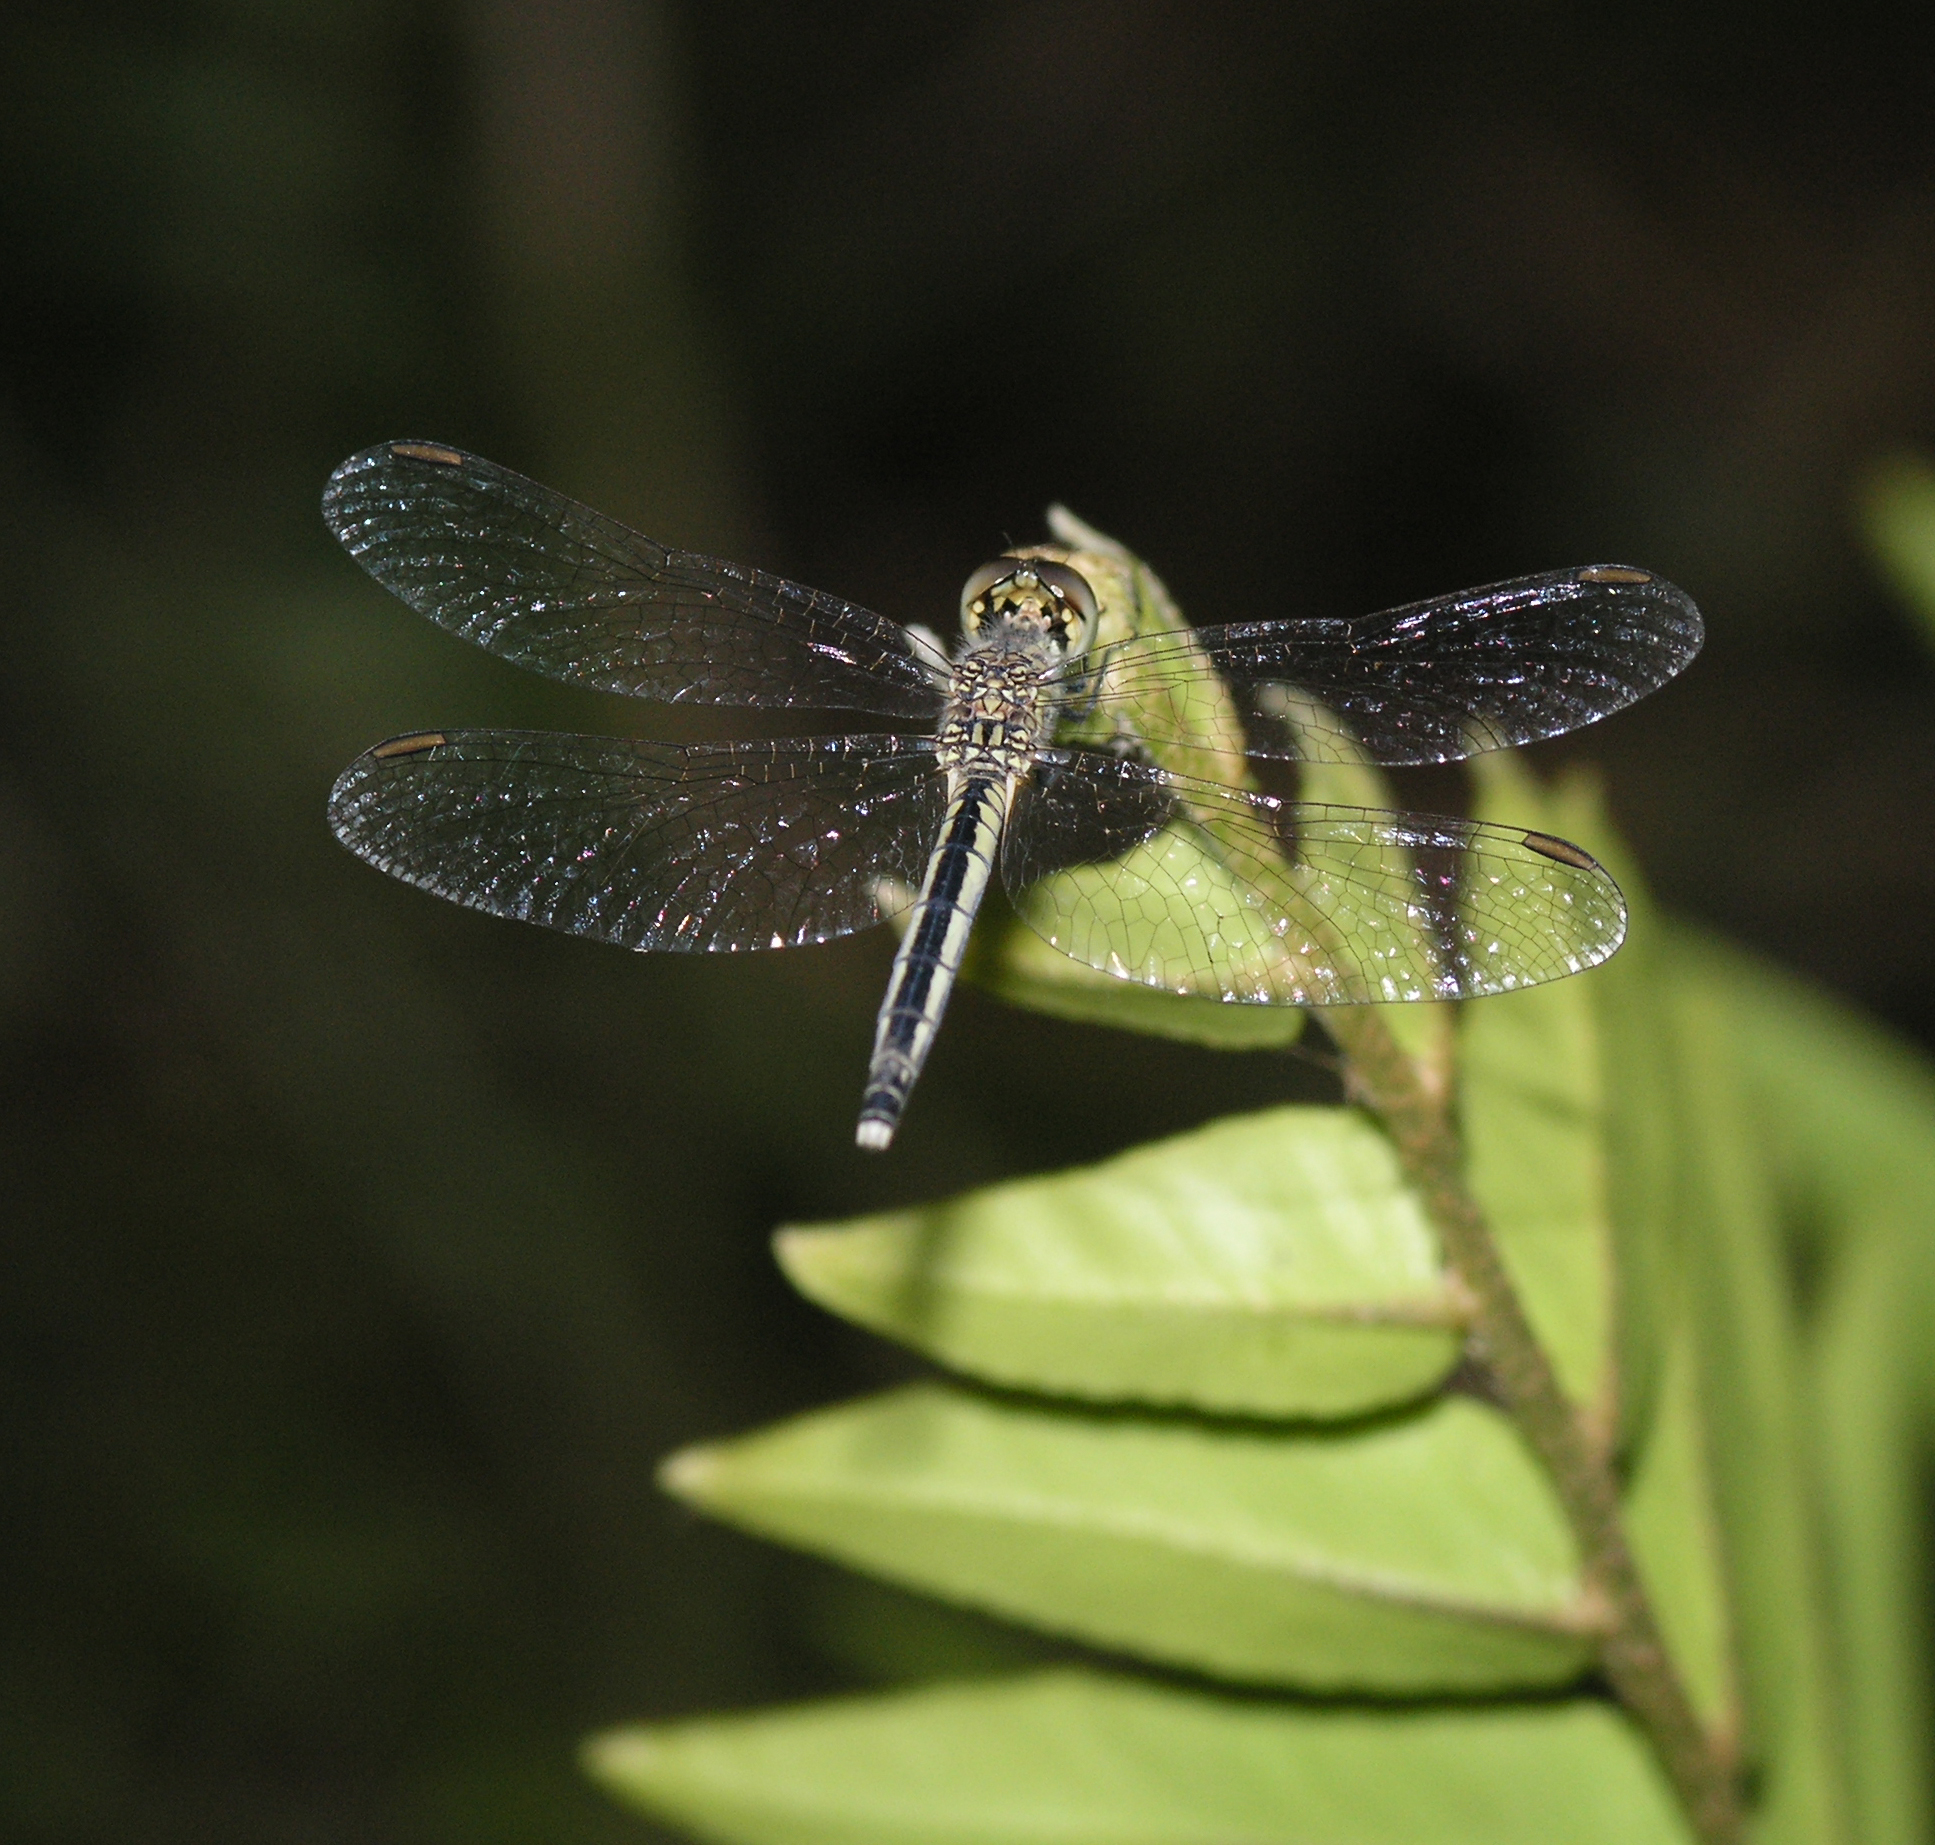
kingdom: Animalia
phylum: Arthropoda
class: Insecta
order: Odonata
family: Libellulidae
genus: Diplacodes
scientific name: Diplacodes nebulosa
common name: Black-tipped percher
